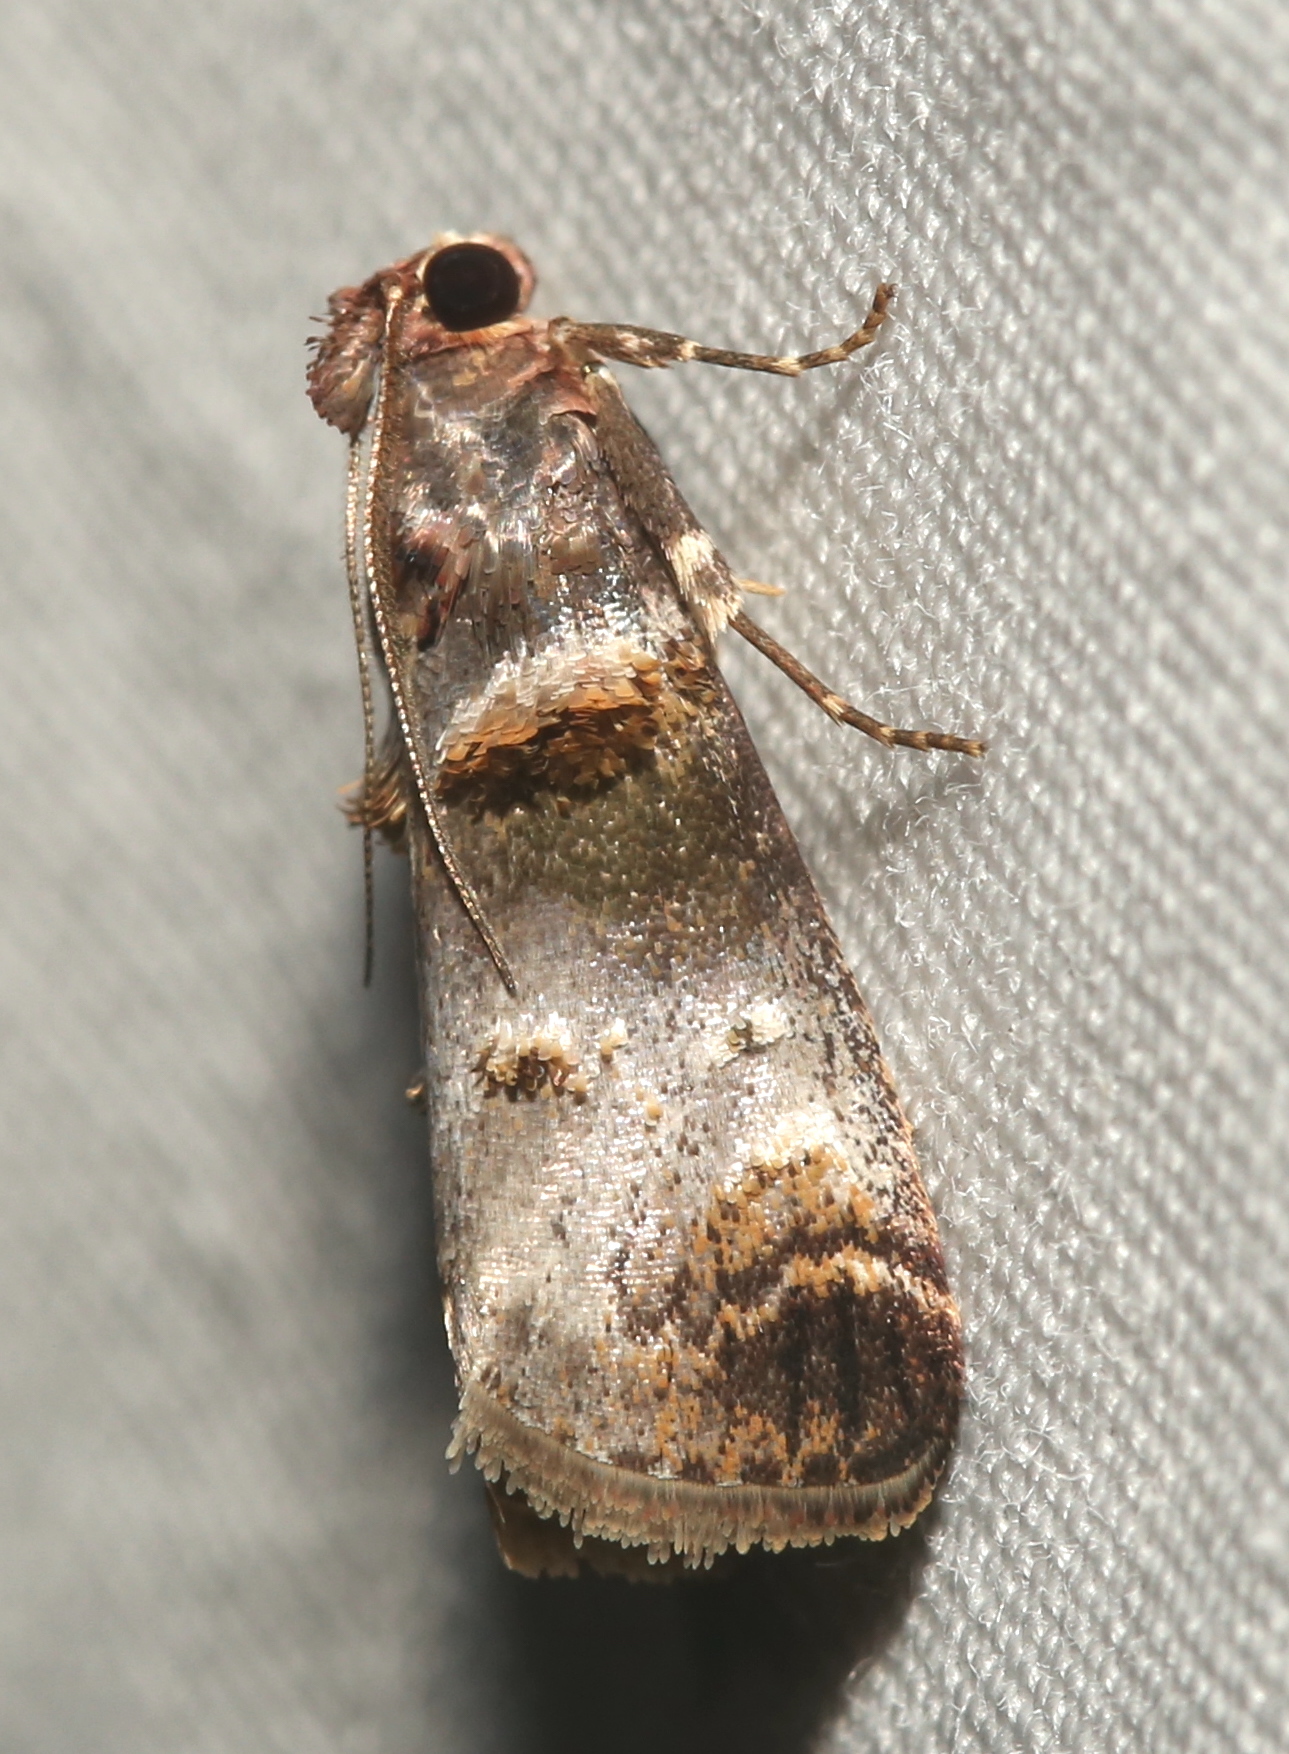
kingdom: Animalia
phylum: Arthropoda
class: Insecta
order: Lepidoptera
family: Pyralidae
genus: Oneida
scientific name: Oneida lunulalis
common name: Orange-tufted oneida moth
